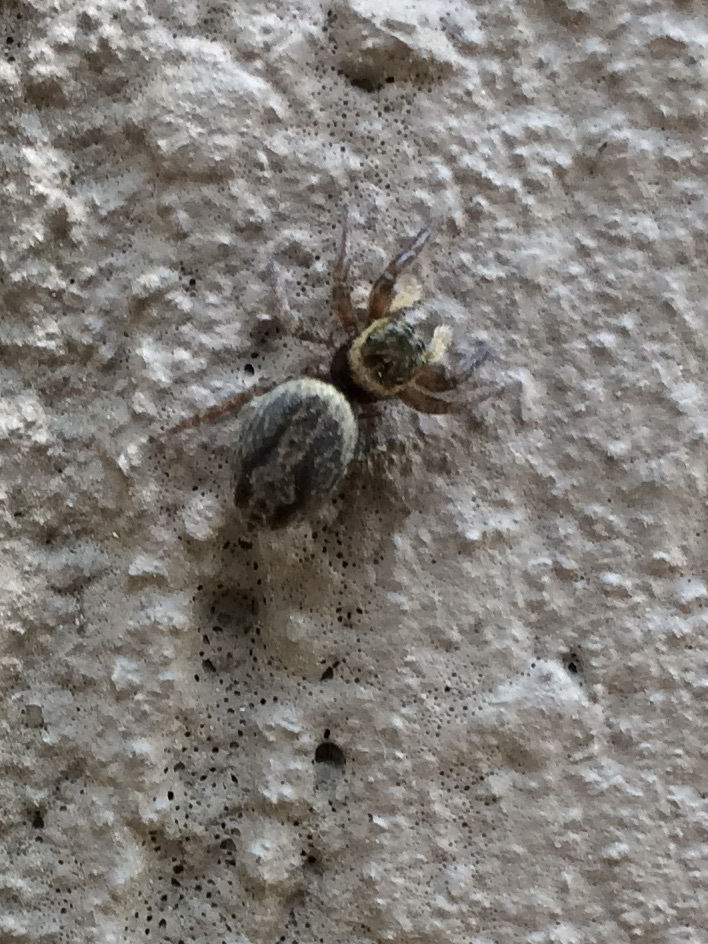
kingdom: Animalia
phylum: Arthropoda
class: Arachnida
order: Araneae
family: Salticidae
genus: Hasarius
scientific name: Hasarius adansoni
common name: Jumping spider
